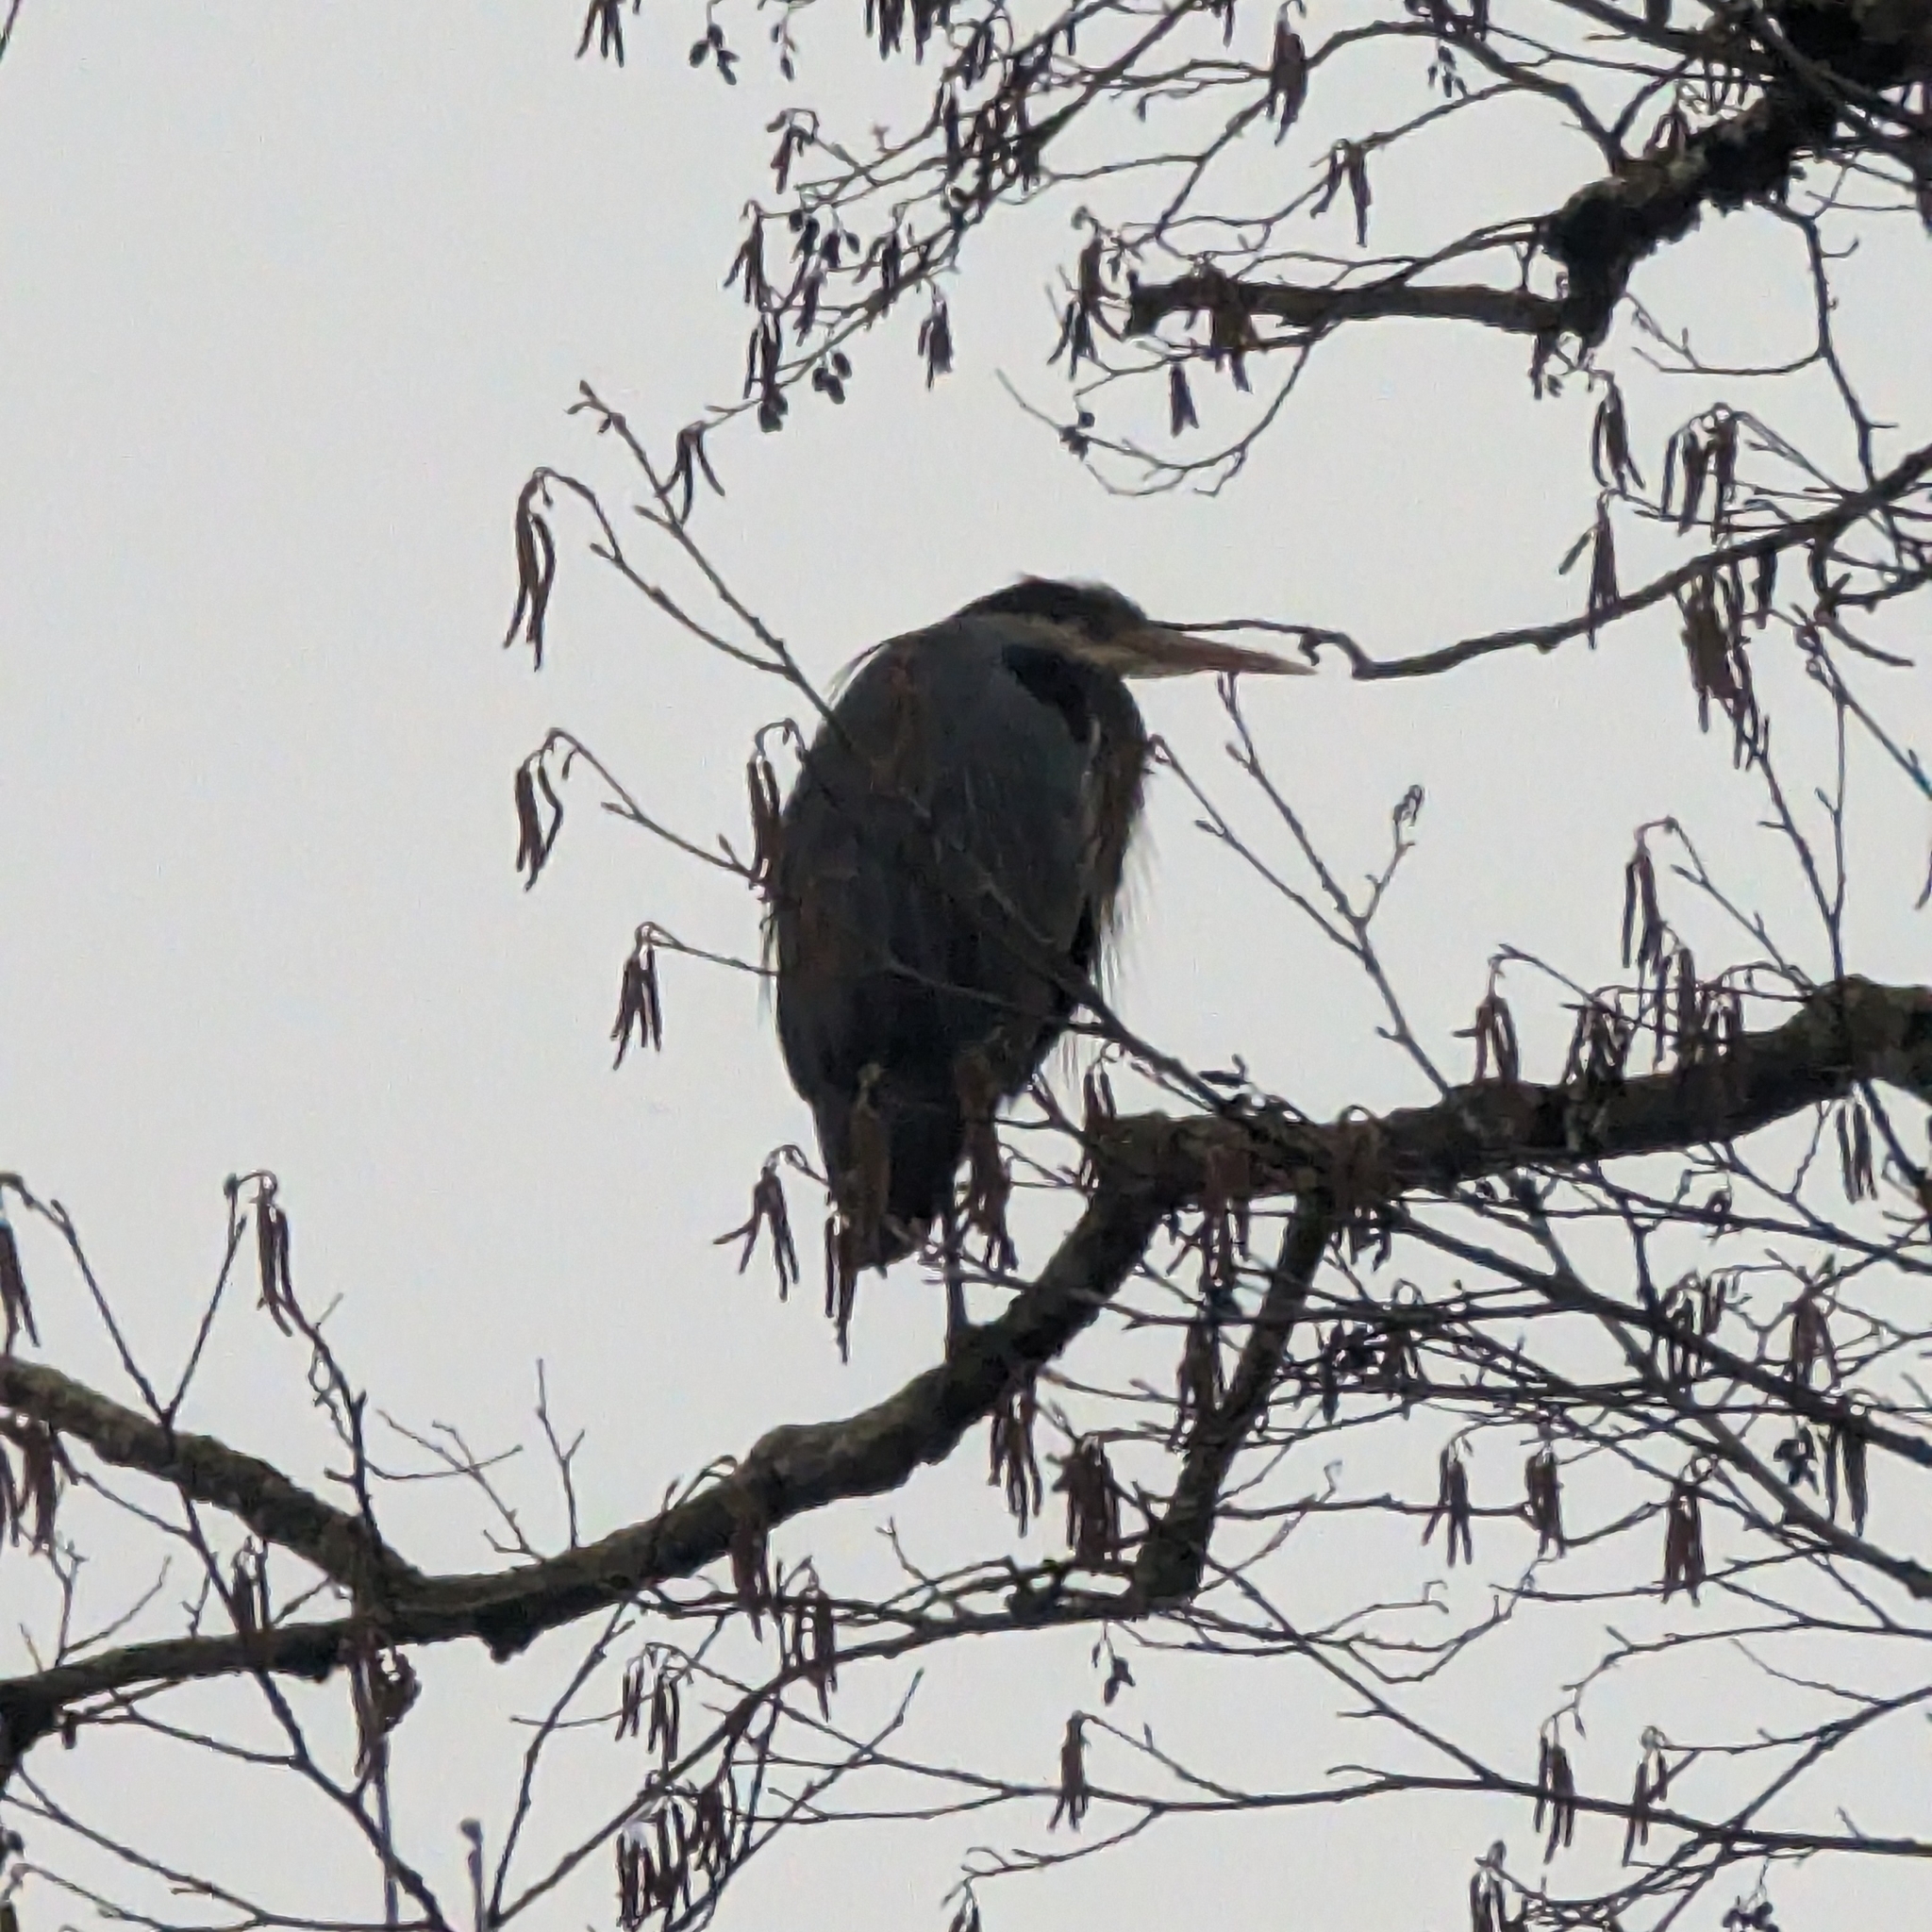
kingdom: Animalia
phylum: Chordata
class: Aves
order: Pelecaniformes
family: Ardeidae
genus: Ardea
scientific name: Ardea herodias
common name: Great blue heron
